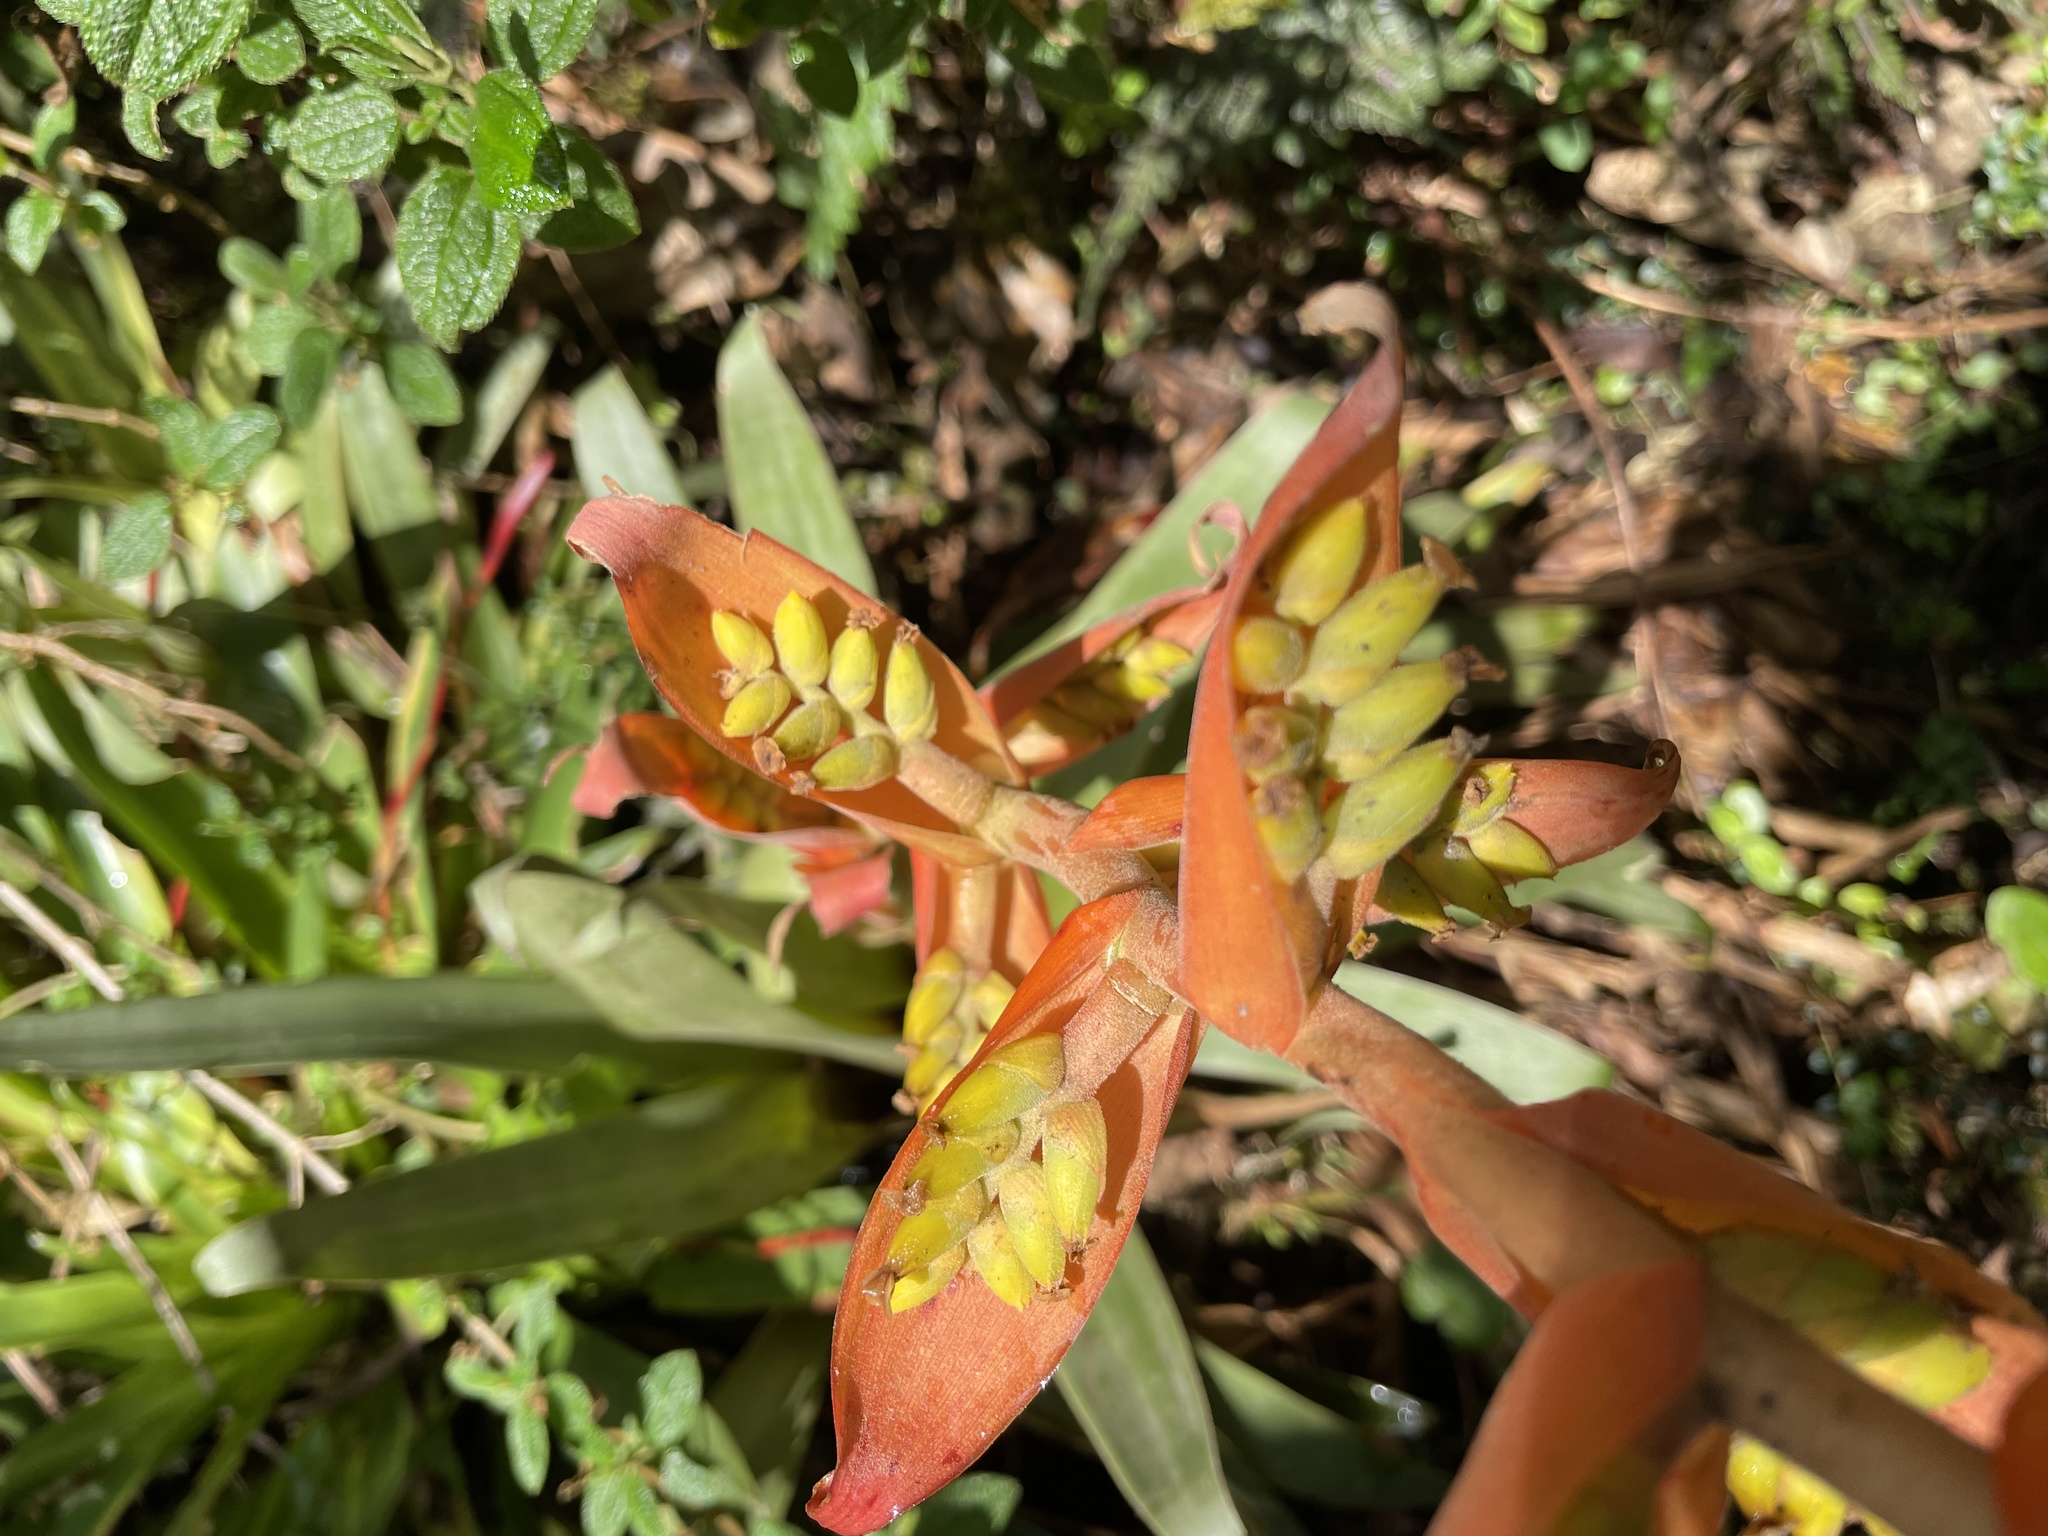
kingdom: Plantae
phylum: Tracheophyta
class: Liliopsida
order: Poales
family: Bromeliaceae
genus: Racinaea
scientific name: Racinaea tetrantha
